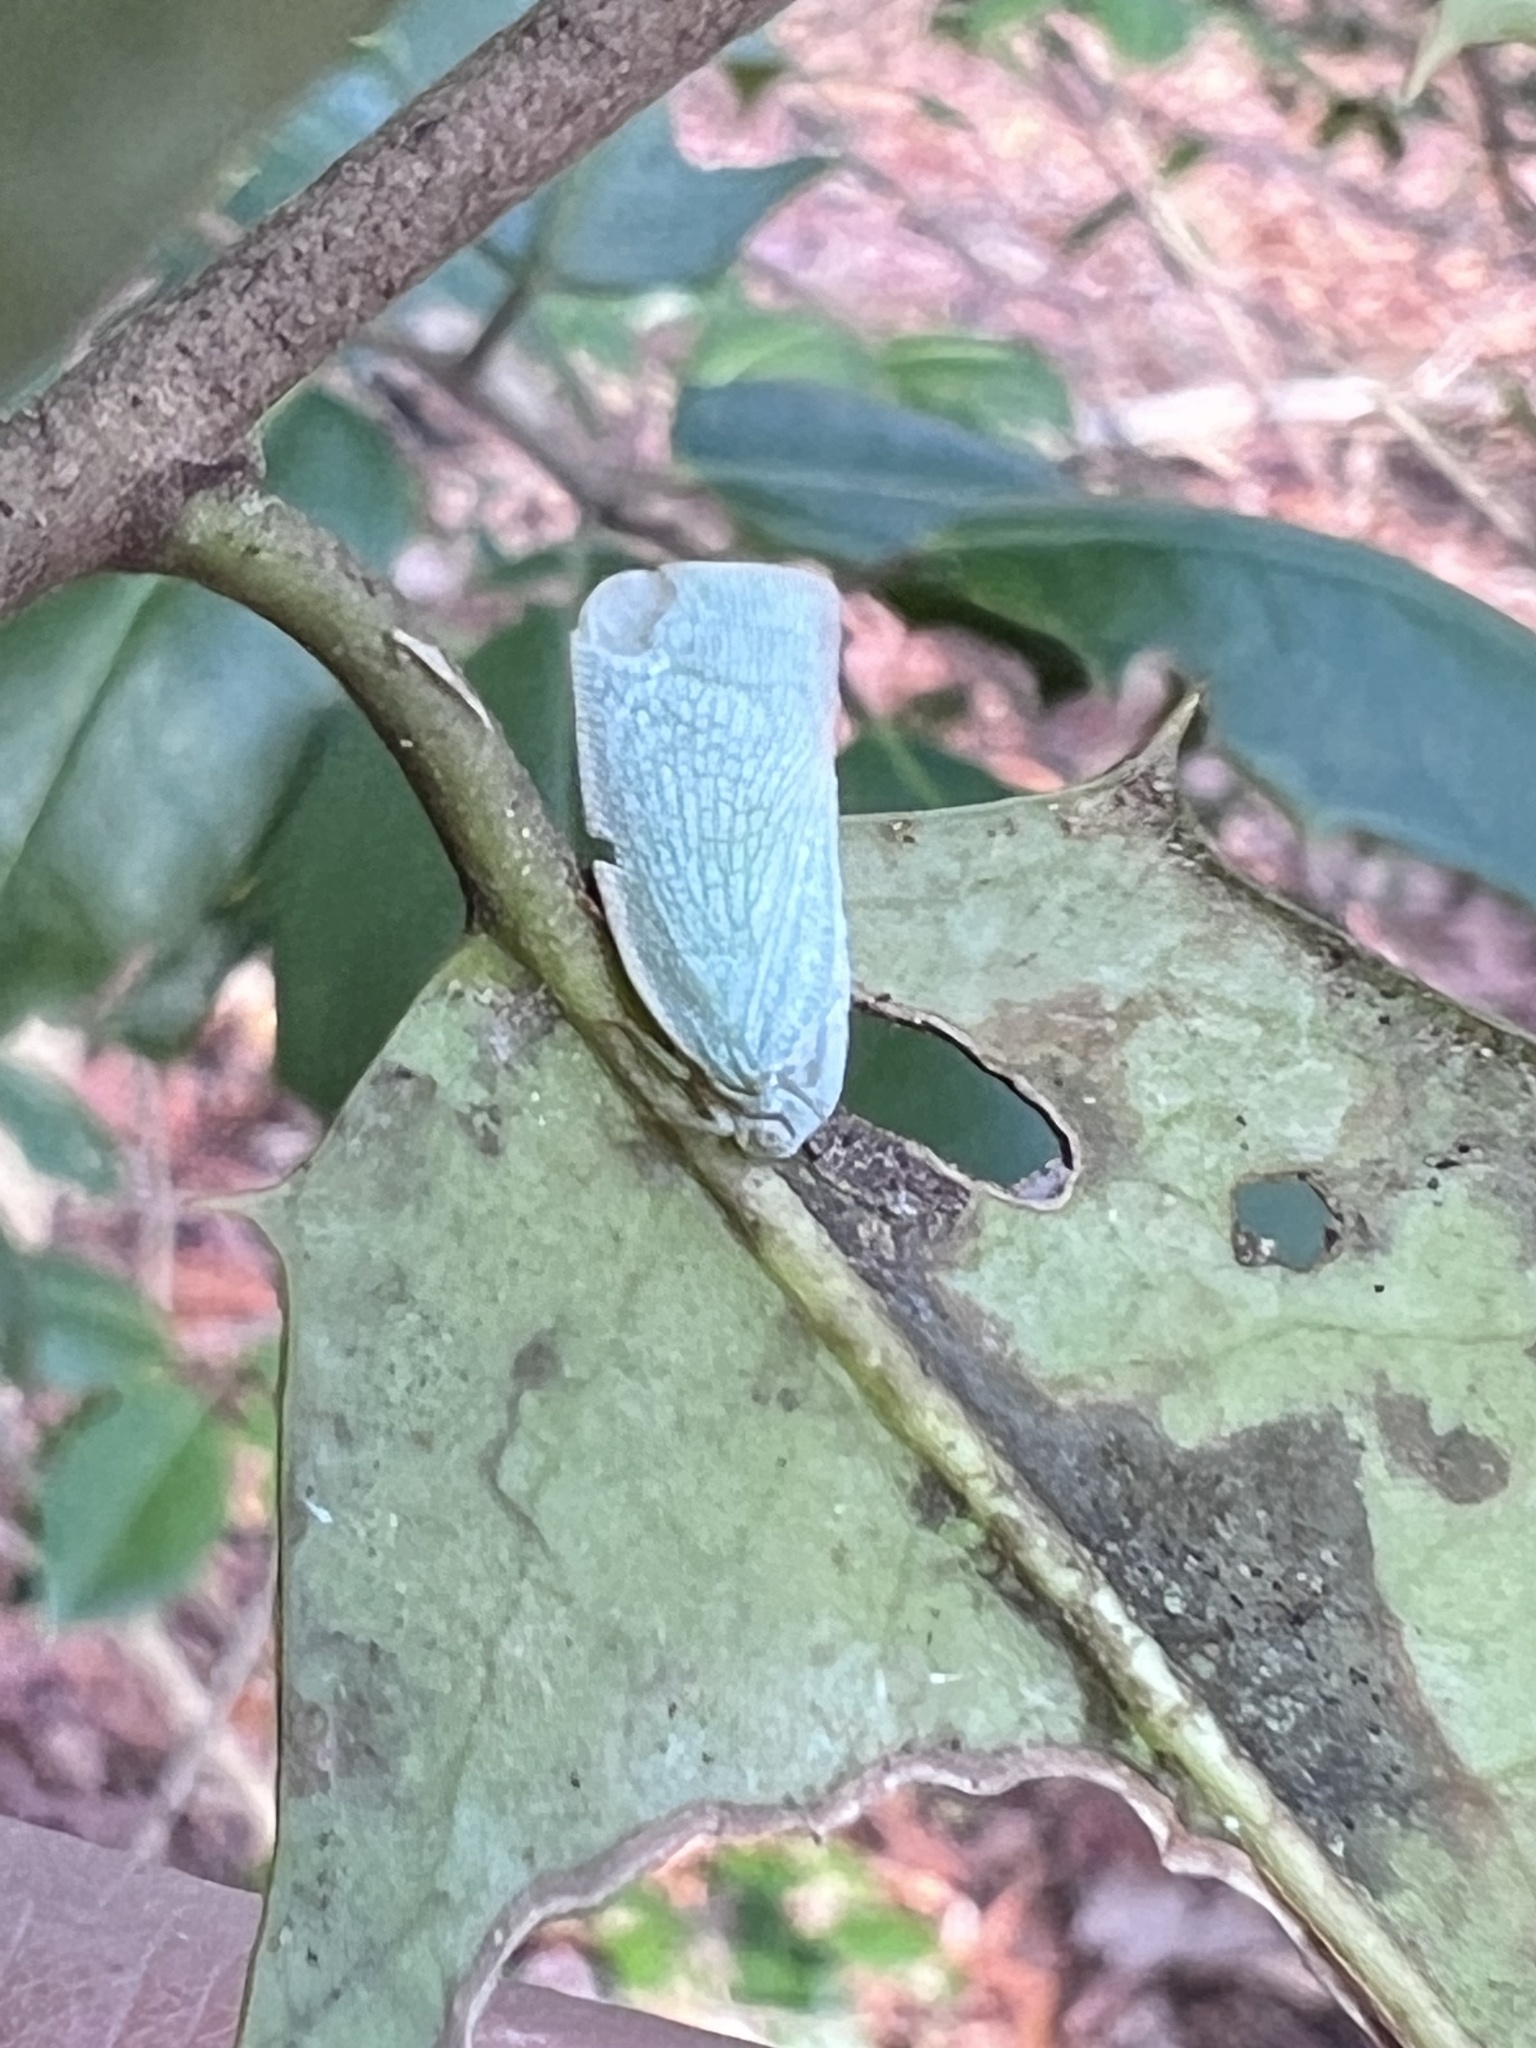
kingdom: Animalia
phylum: Arthropoda
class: Insecta
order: Hemiptera
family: Flatidae
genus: Flatormenis
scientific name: Flatormenis proxima
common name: Northern flatid planthopper
